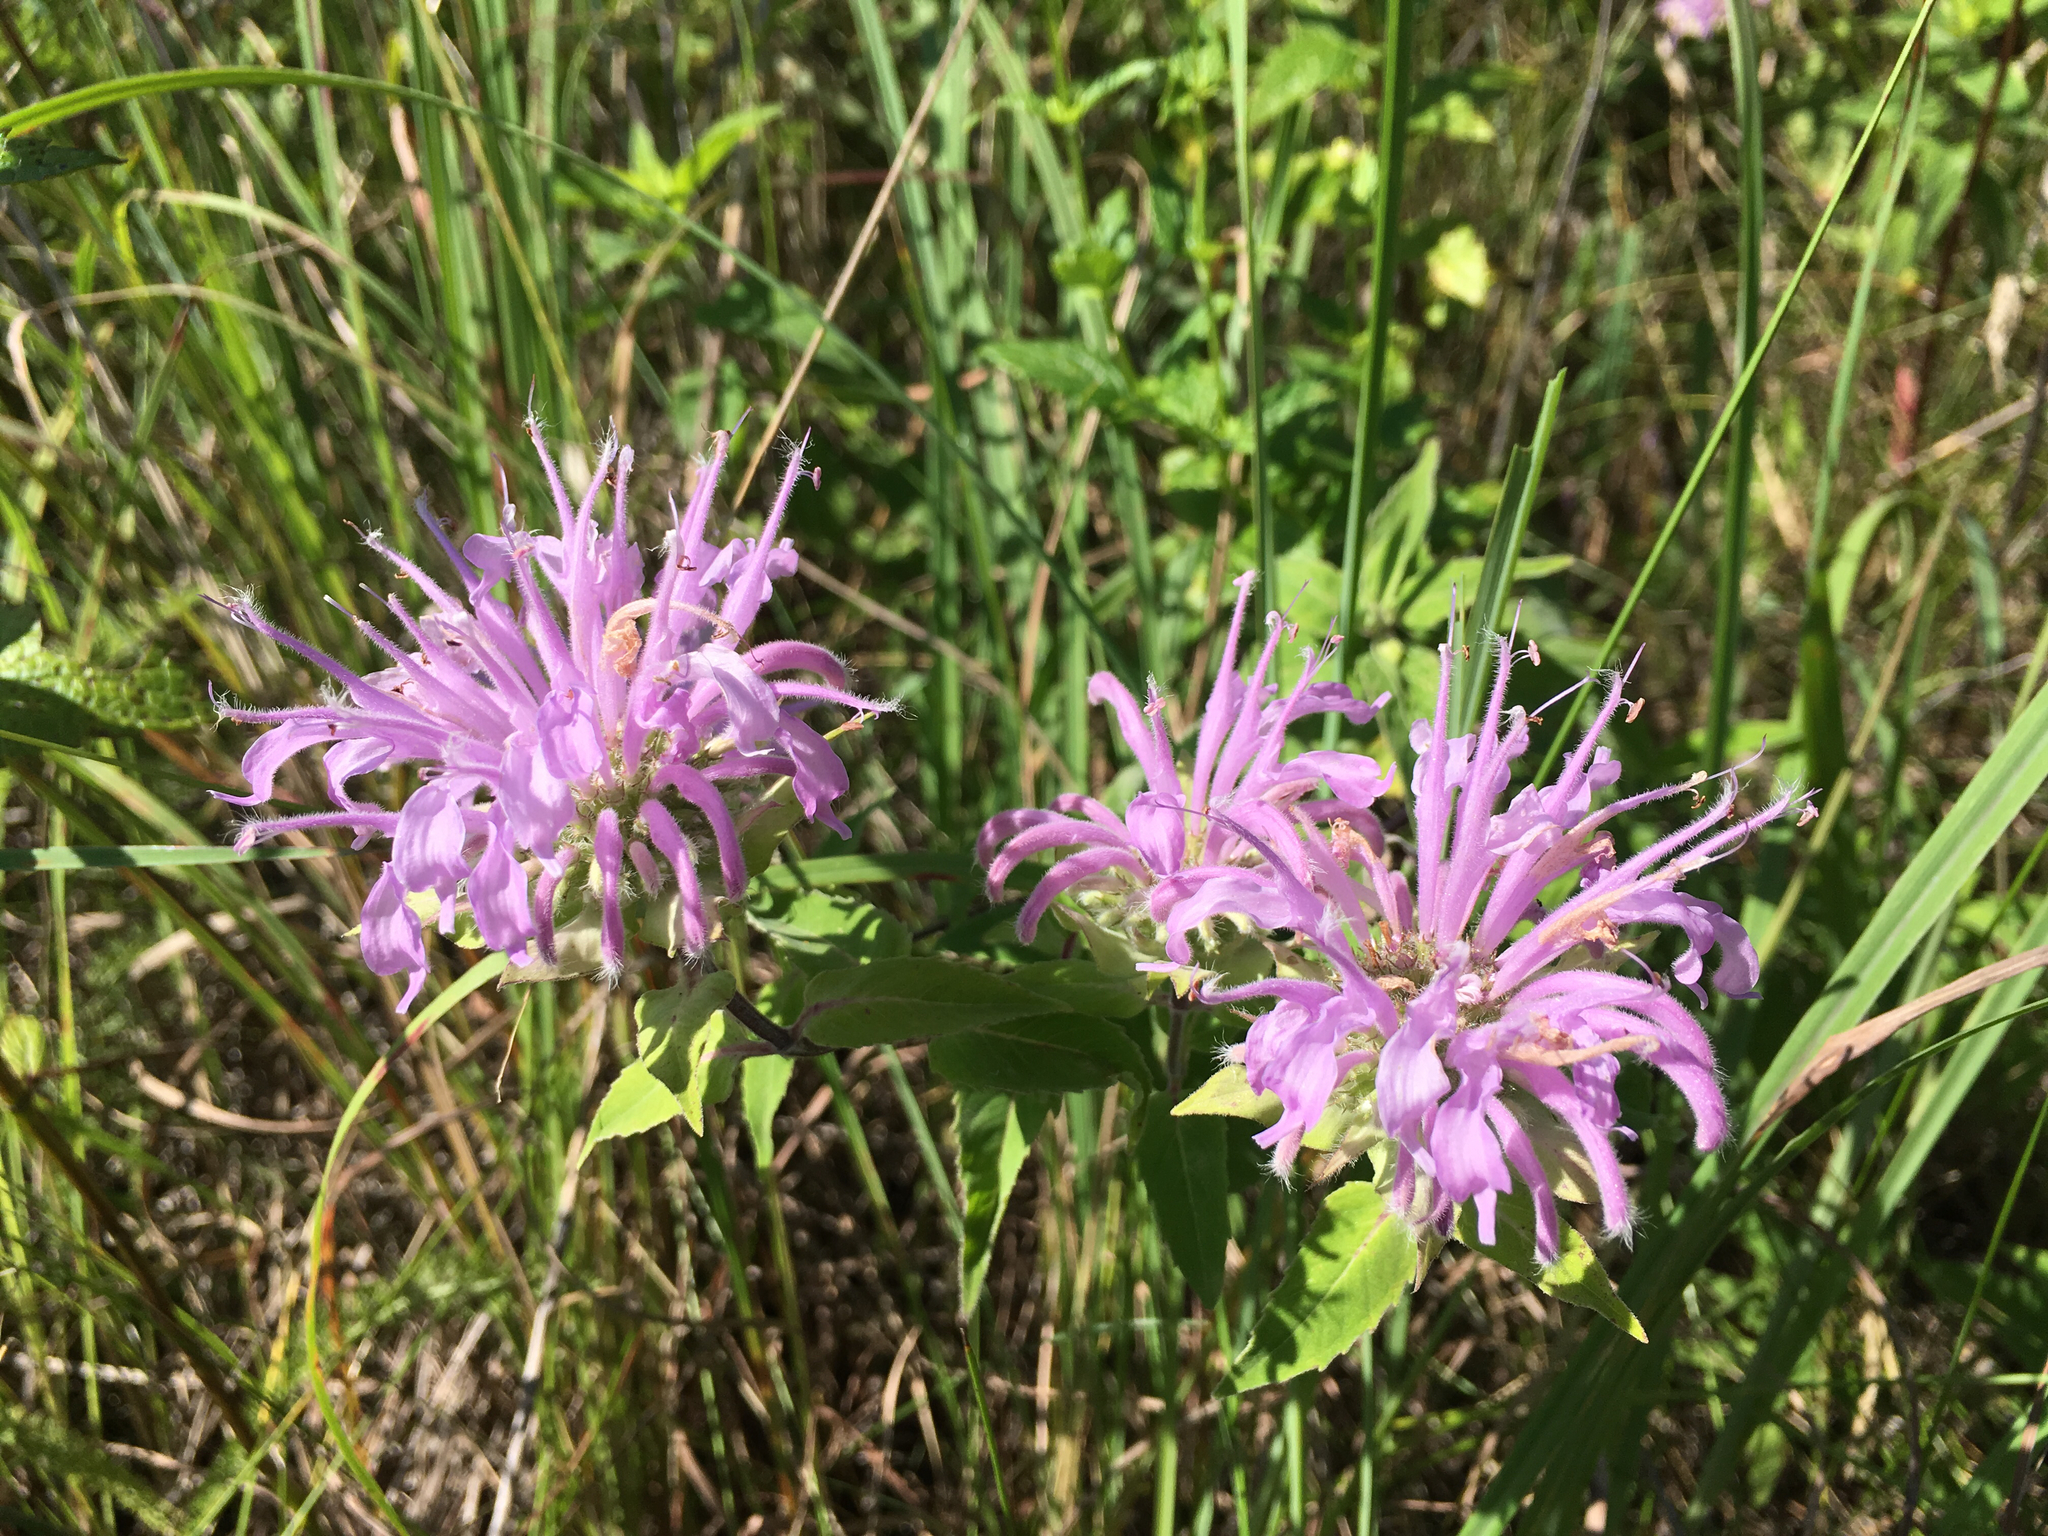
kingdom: Plantae
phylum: Tracheophyta
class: Magnoliopsida
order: Lamiales
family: Lamiaceae
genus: Monarda
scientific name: Monarda fistulosa
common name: Purple beebalm
